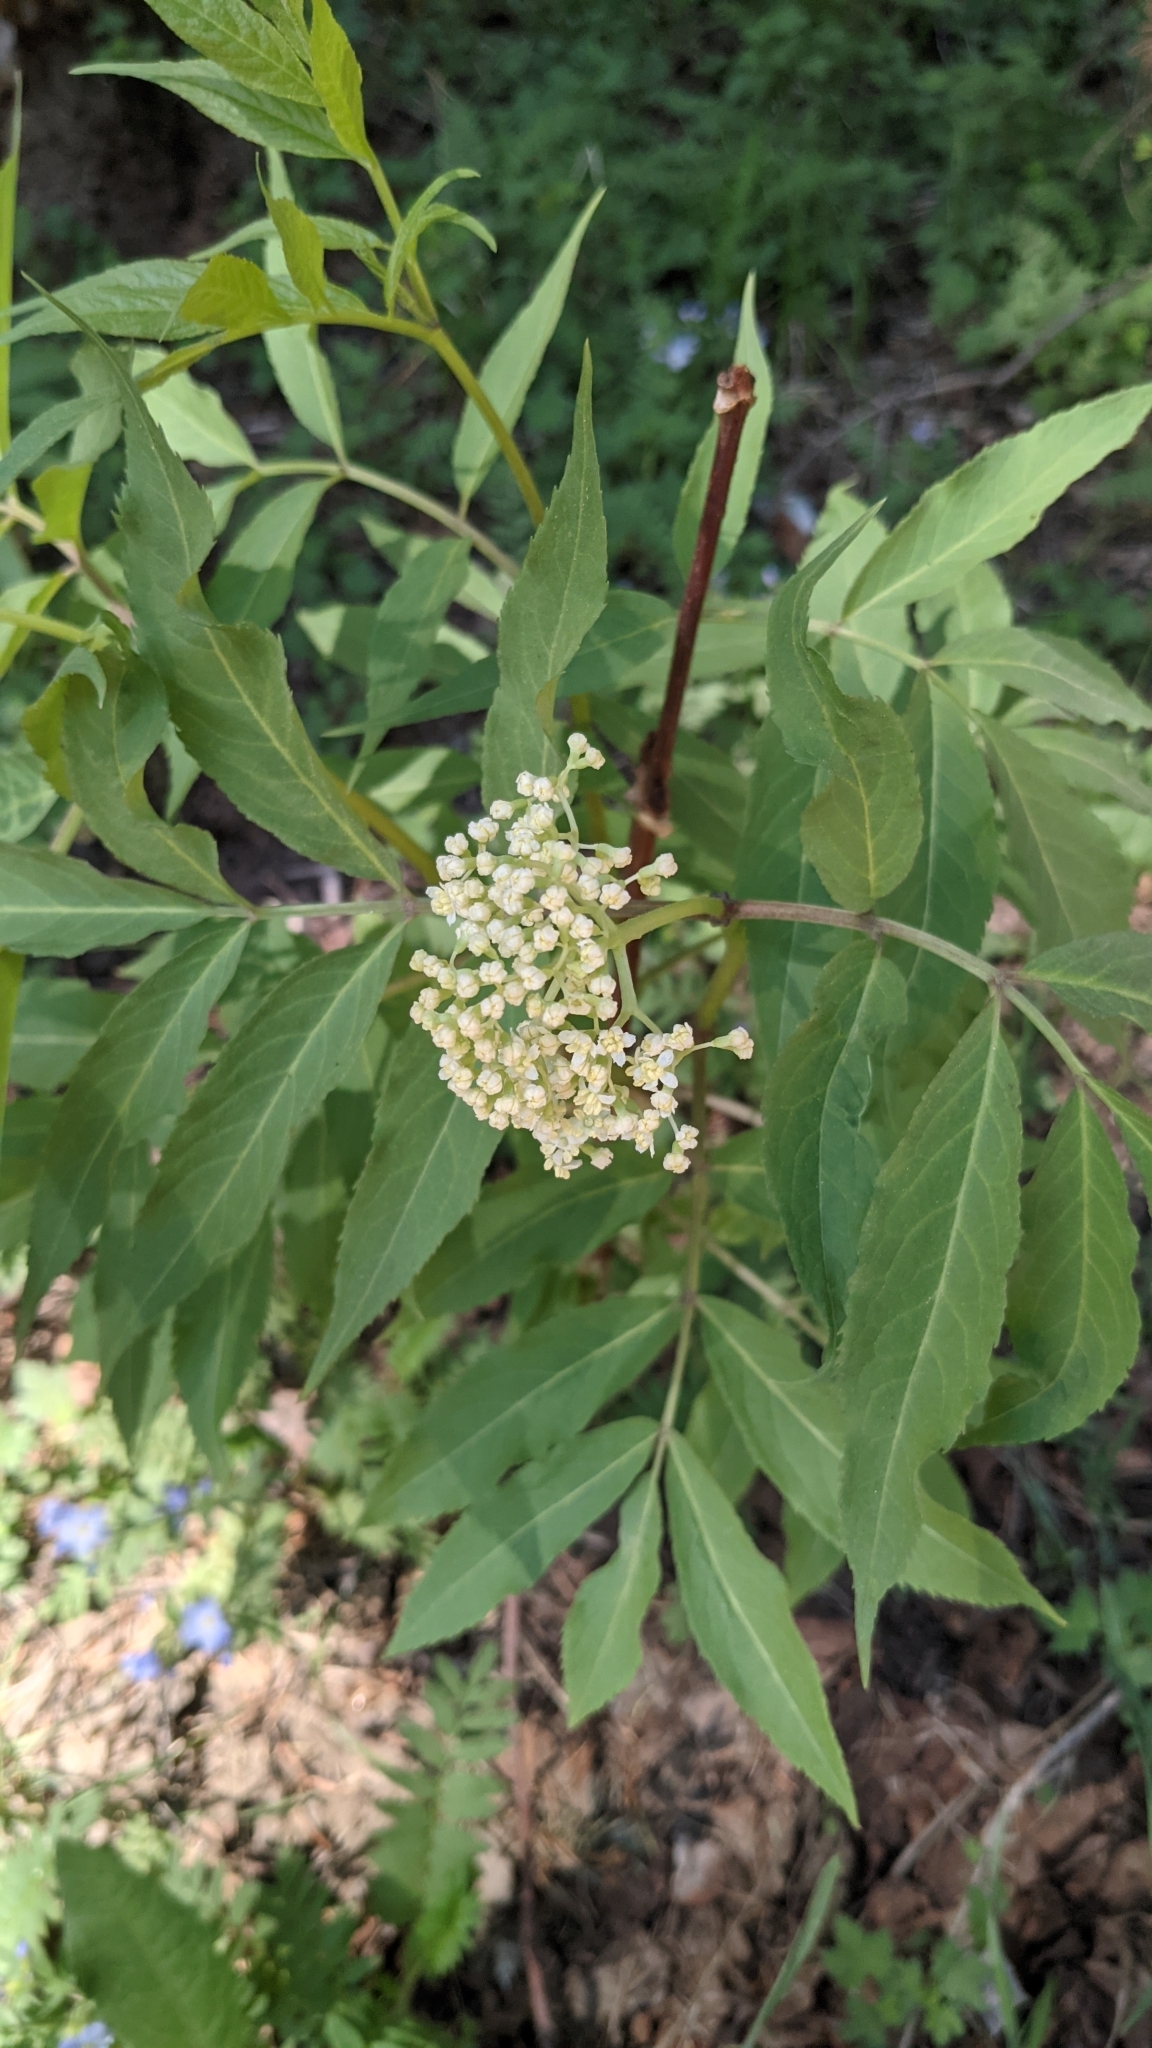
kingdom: Plantae
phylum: Tracheophyta
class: Magnoliopsida
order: Dipsacales
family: Viburnaceae
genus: Sambucus
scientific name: Sambucus racemosa
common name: Red-berried elder
